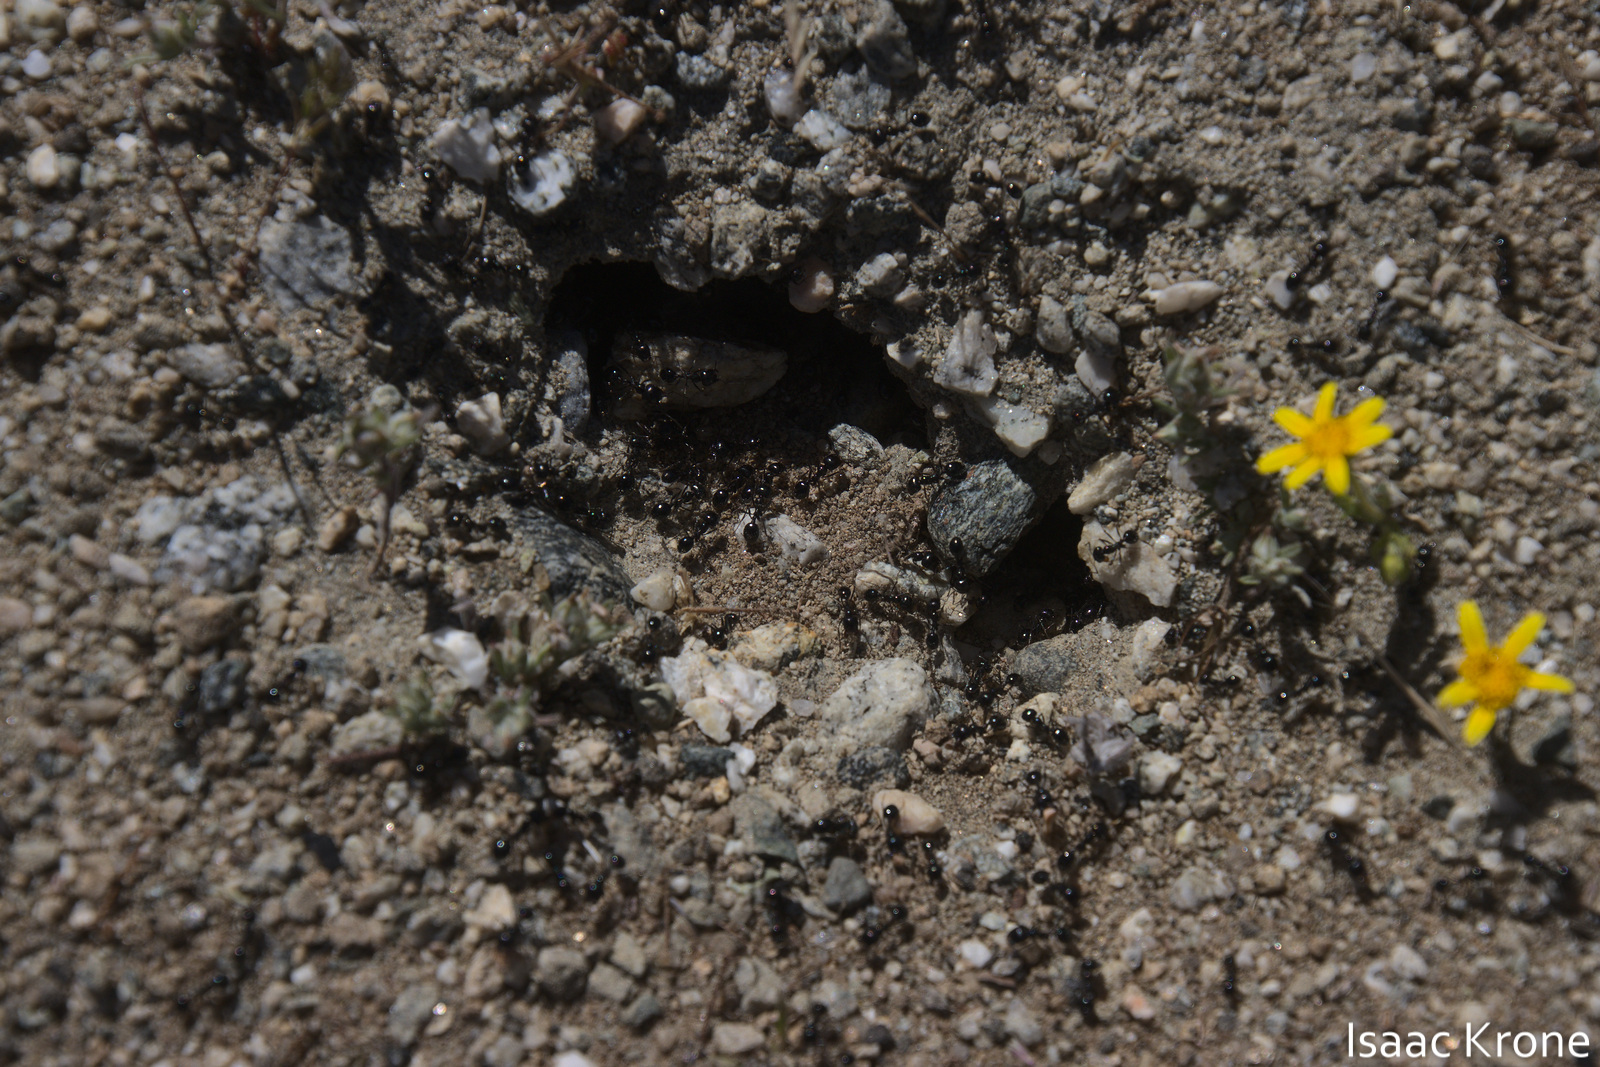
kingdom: Animalia
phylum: Arthropoda
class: Insecta
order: Hymenoptera
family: Formicidae
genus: Messor
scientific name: Messor pergandei
